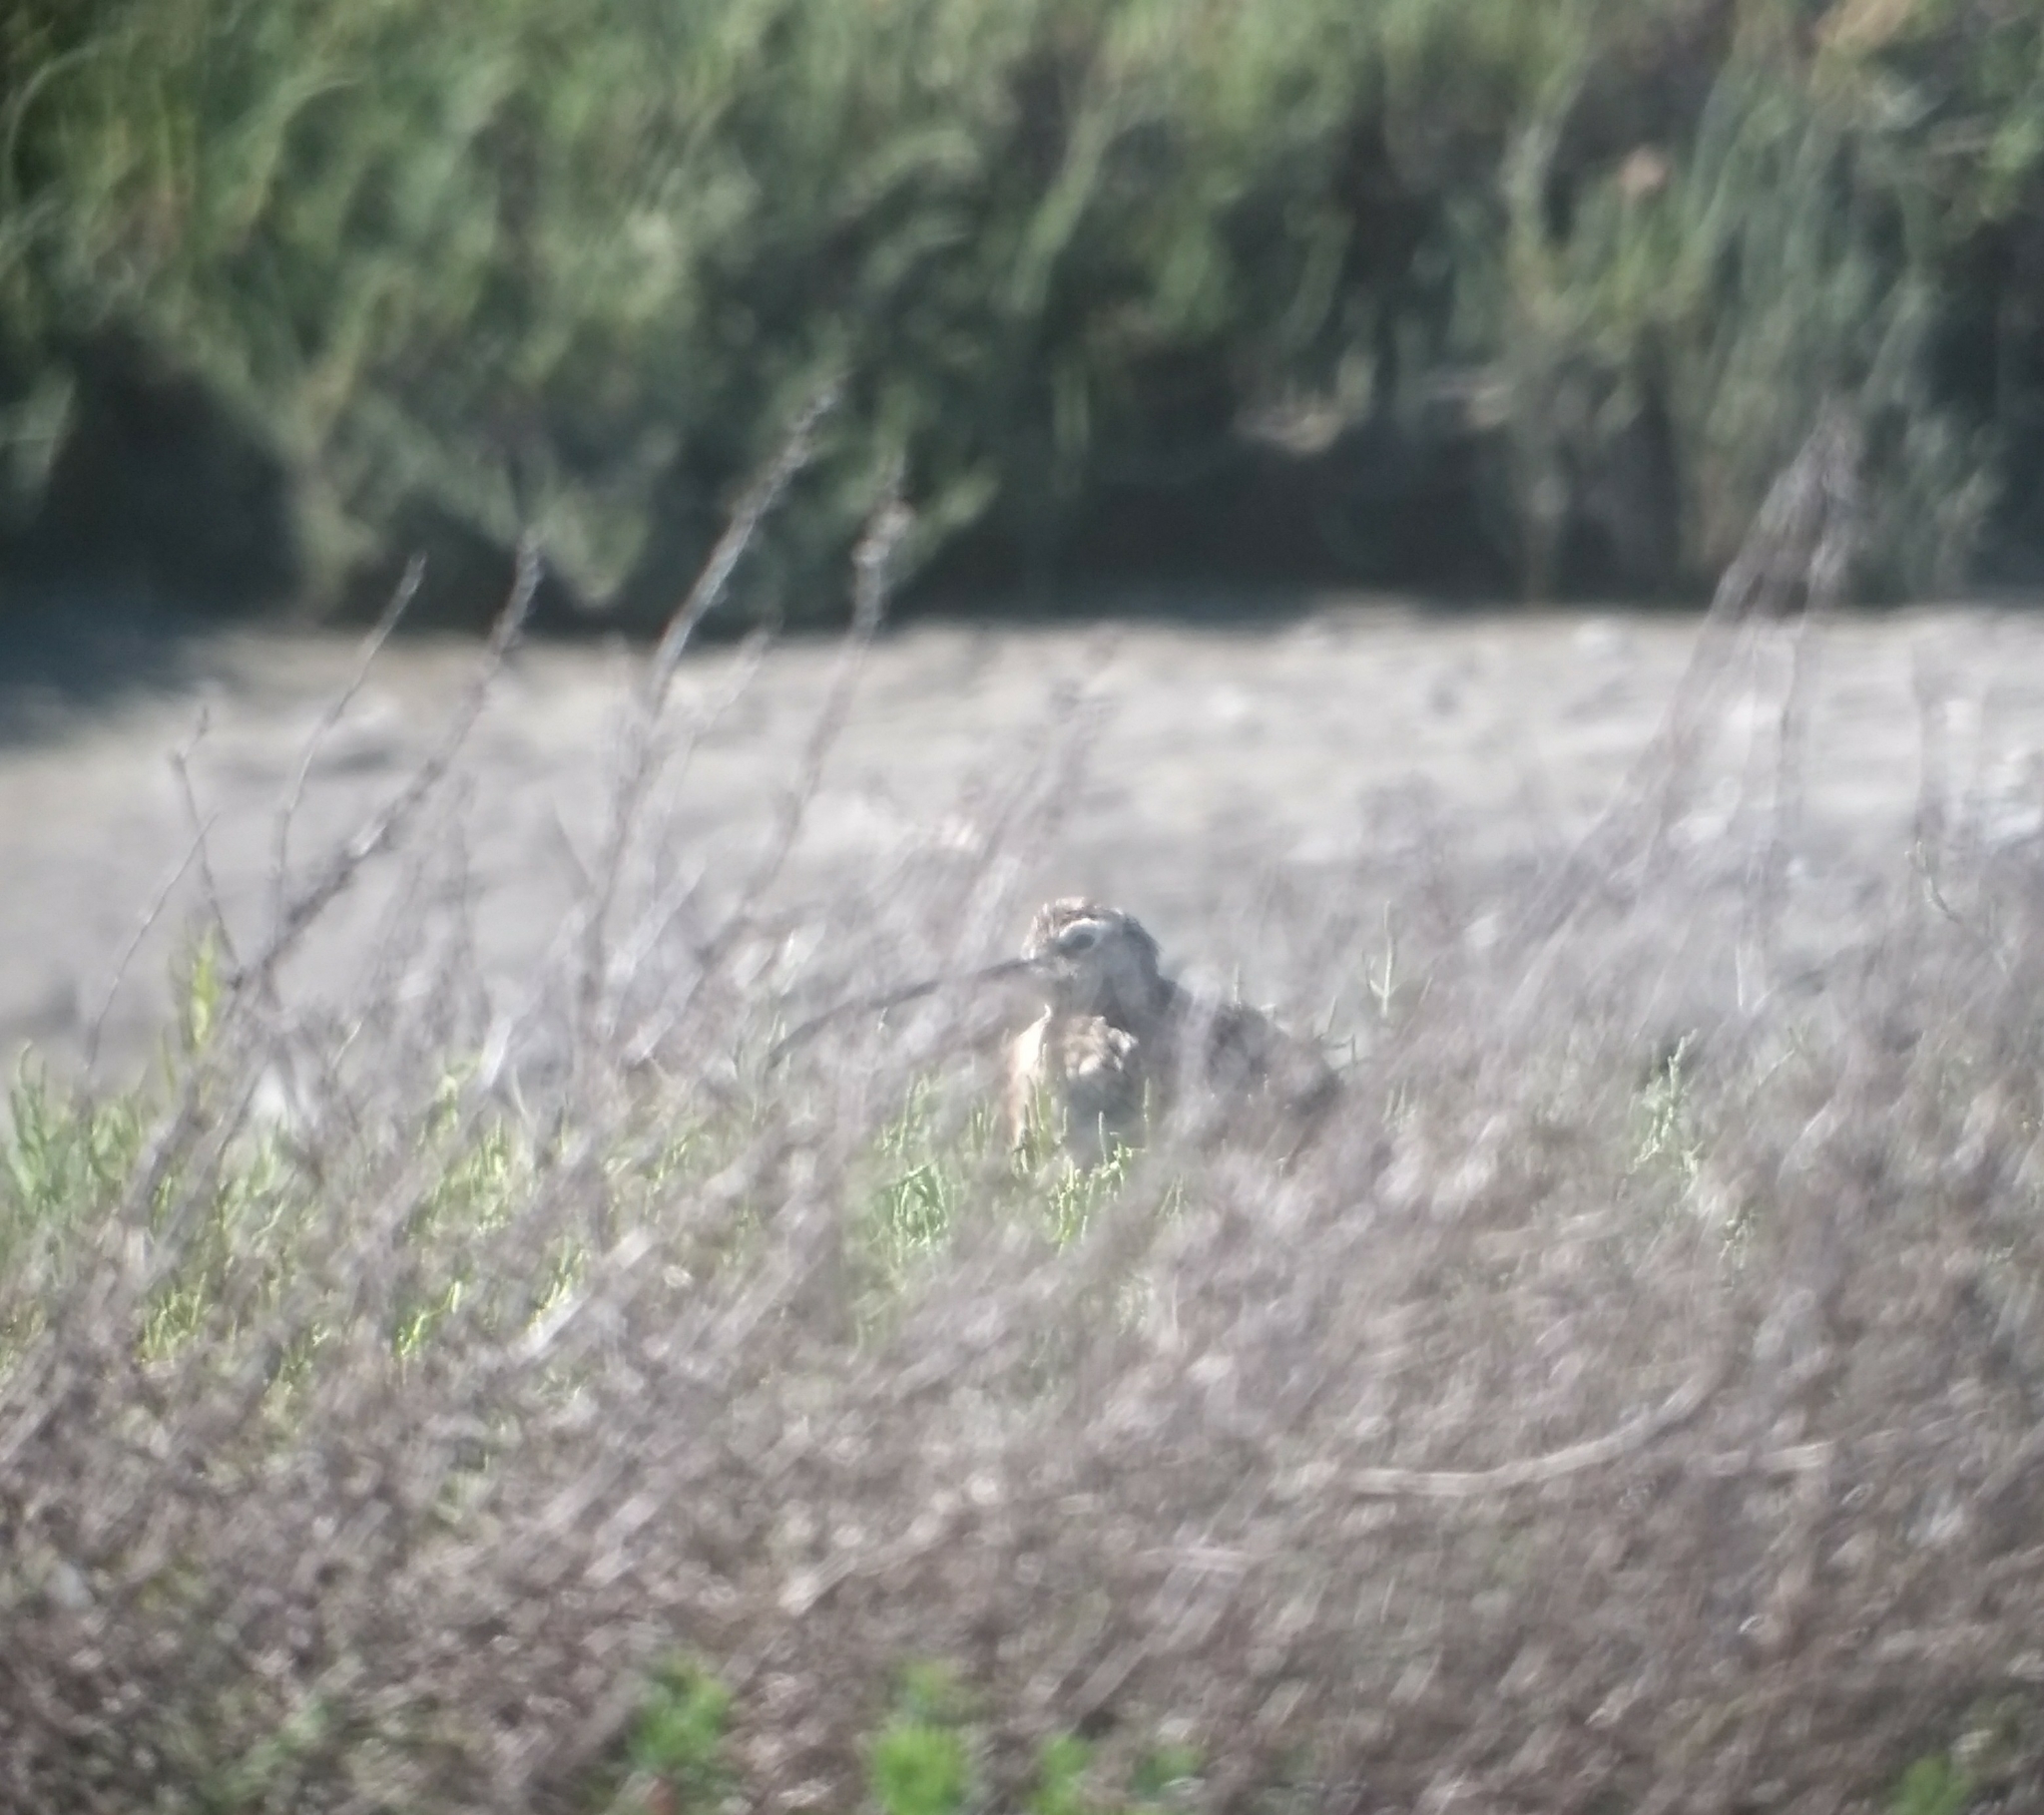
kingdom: Animalia
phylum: Chordata
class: Aves
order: Charadriiformes
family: Scolopacidae
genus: Numenius
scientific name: Numenius americanus
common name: Long-billed curlew
